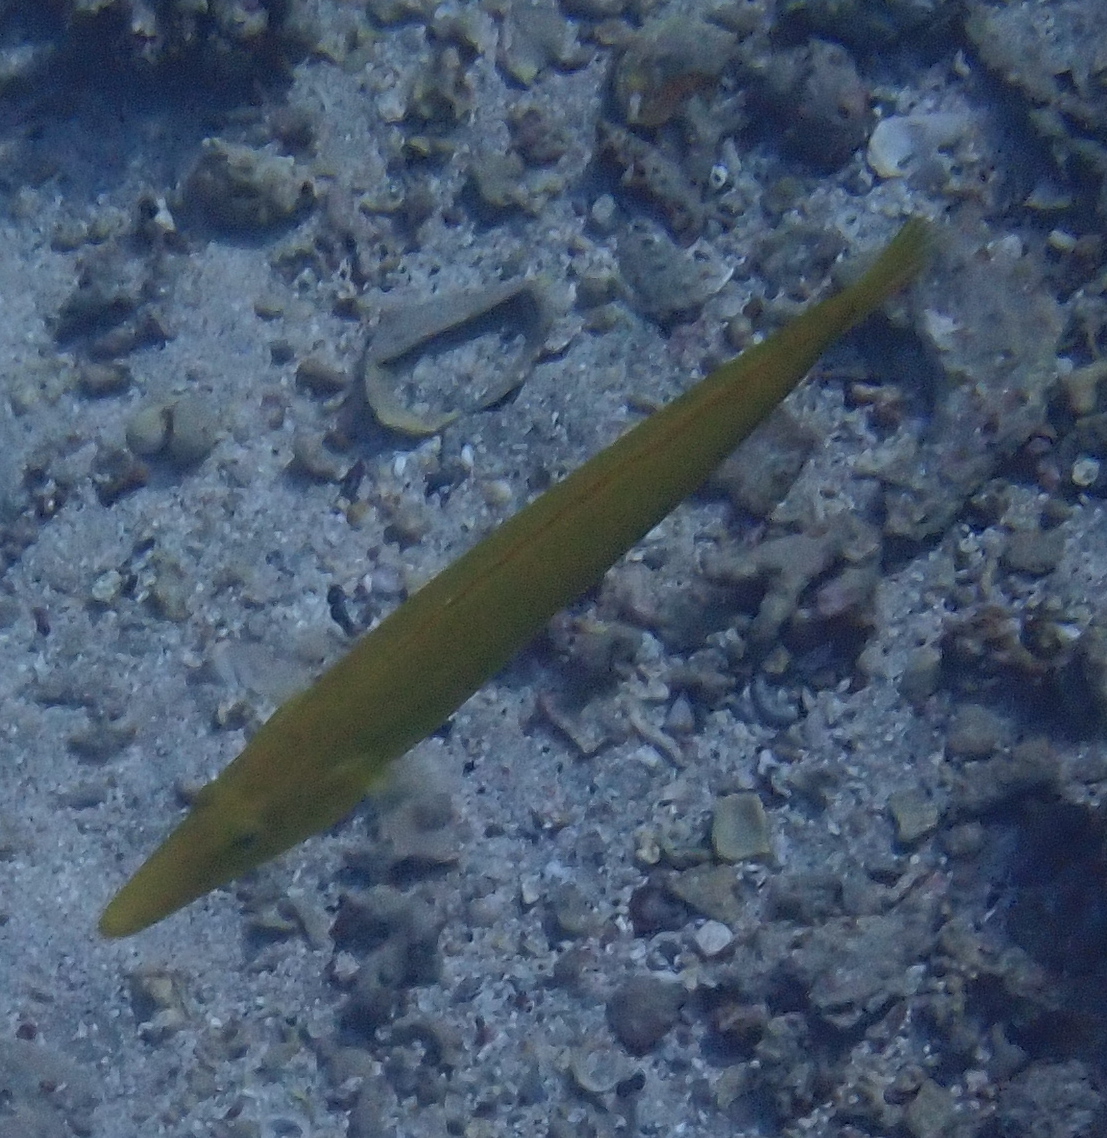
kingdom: Animalia
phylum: Chordata
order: Perciformes
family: Labridae
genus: Cheilio
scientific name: Cheilio inermis
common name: Cigar wrasse
